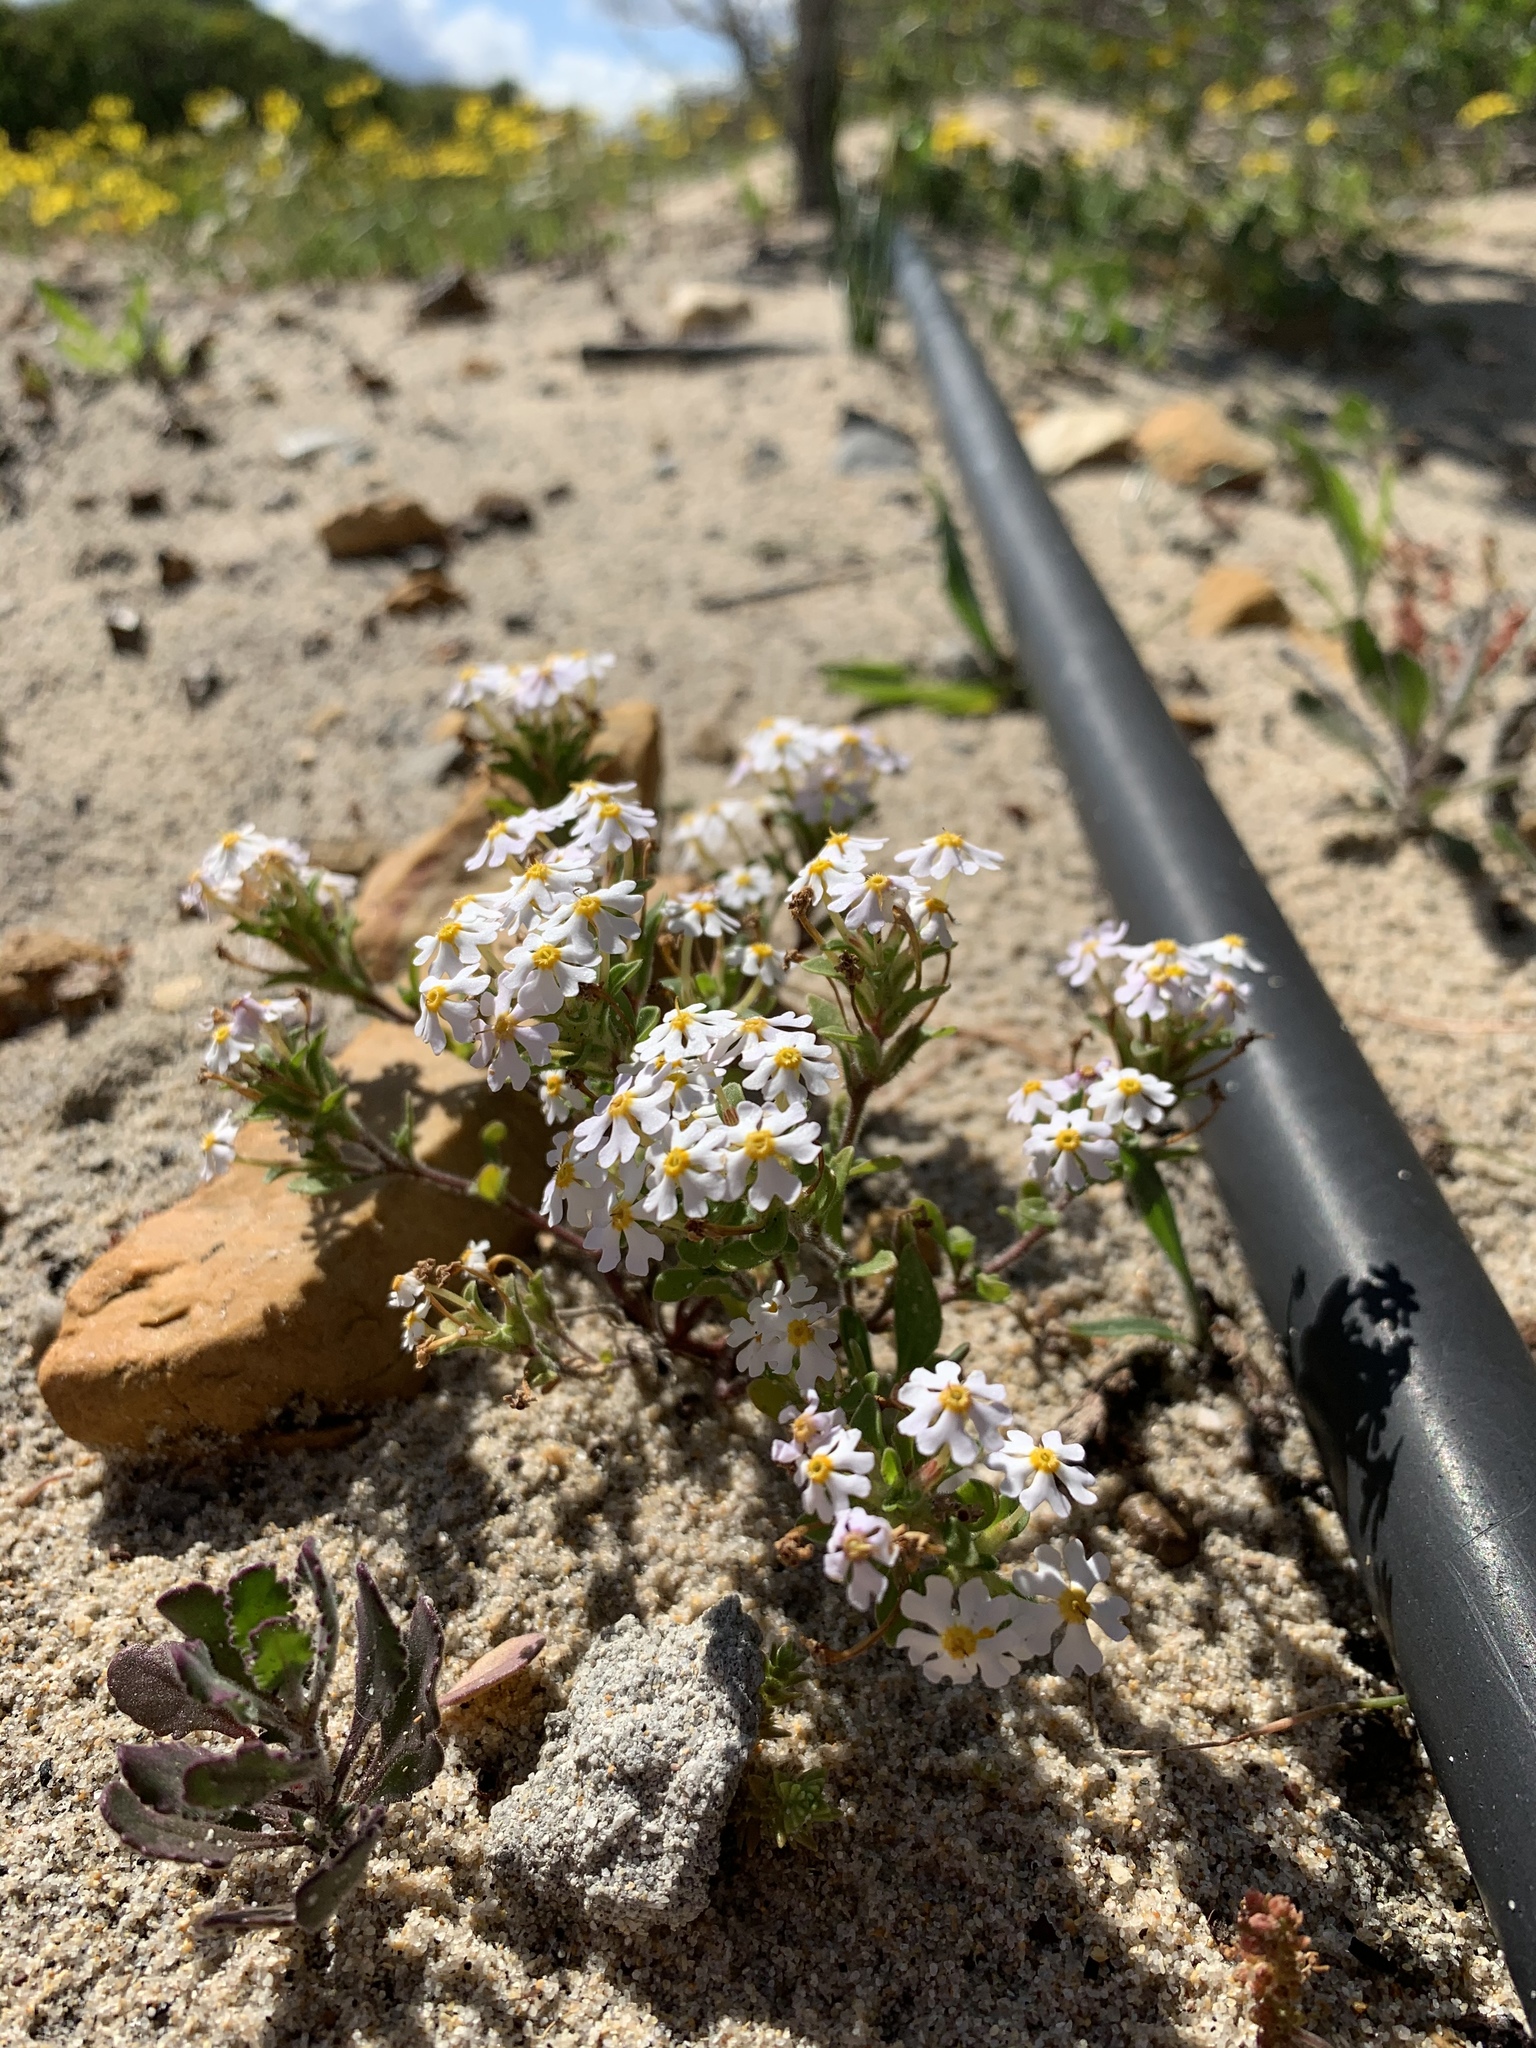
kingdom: Plantae
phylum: Tracheophyta
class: Magnoliopsida
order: Lamiales
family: Scrophulariaceae
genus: Zaluzianskya
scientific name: Zaluzianskya villosa
